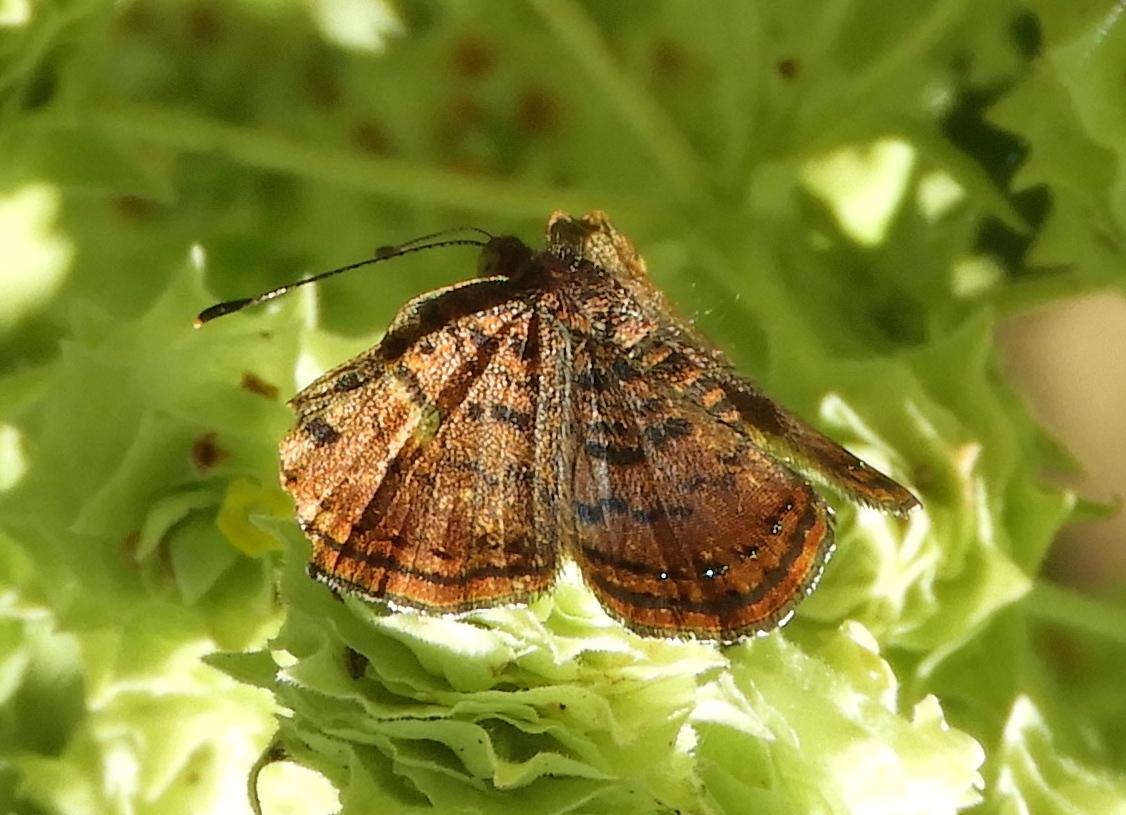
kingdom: Animalia
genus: Caria
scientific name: Caria ino
